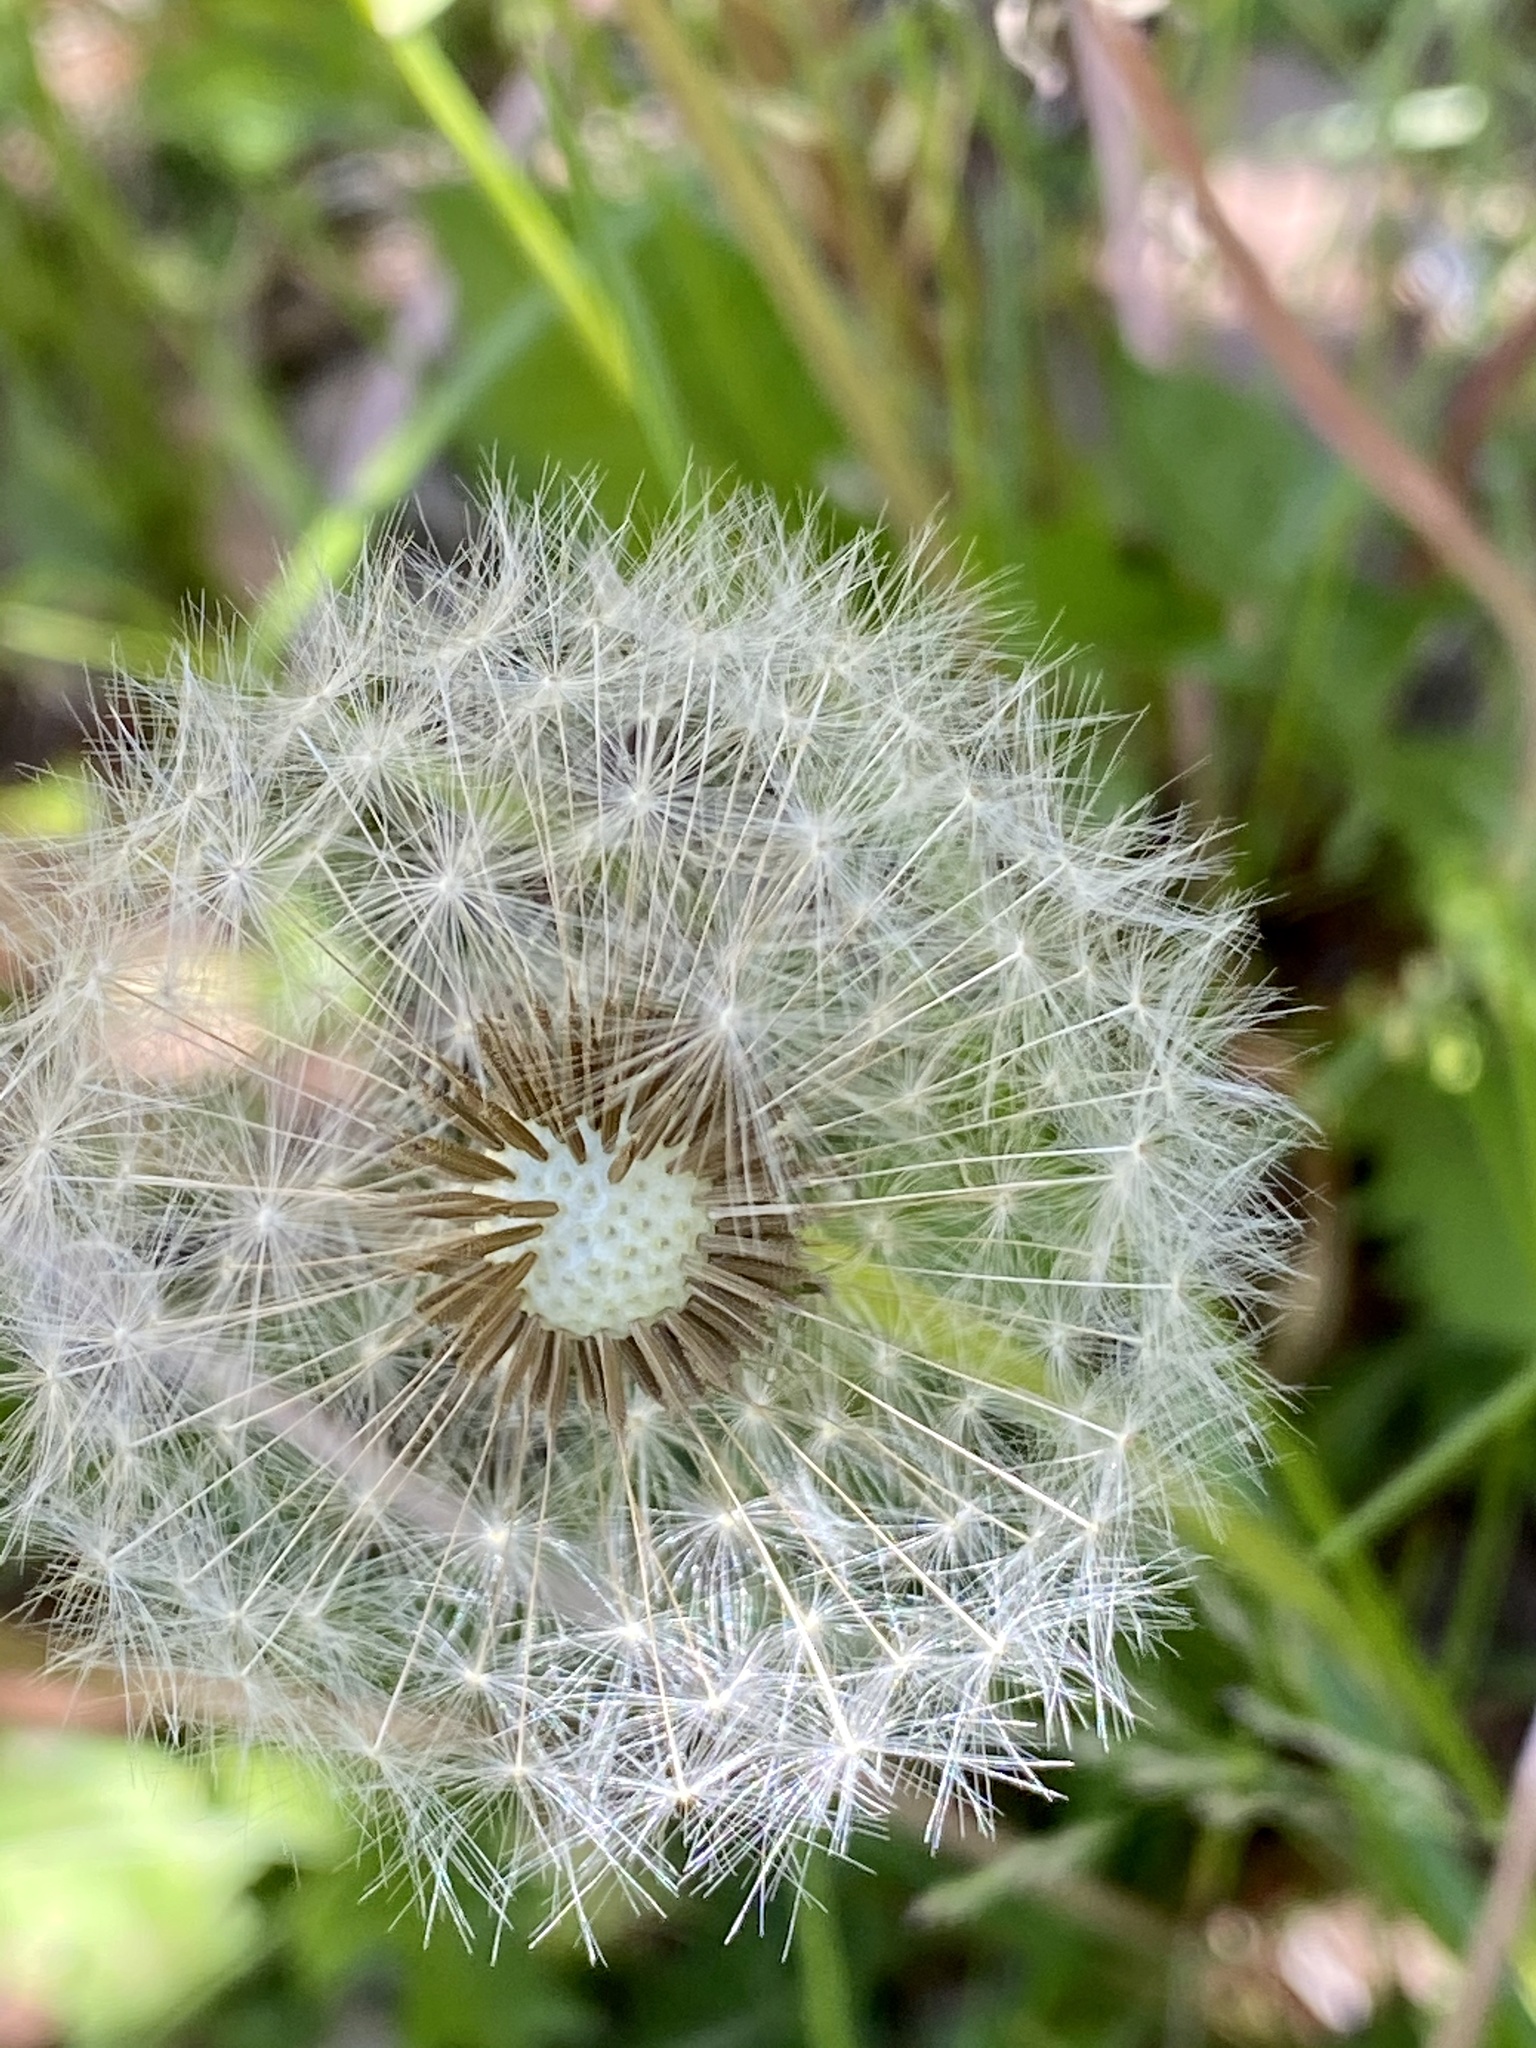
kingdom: Plantae
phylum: Tracheophyta
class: Magnoliopsida
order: Asterales
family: Asteraceae
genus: Taraxacum
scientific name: Taraxacum officinale
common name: Common dandelion
